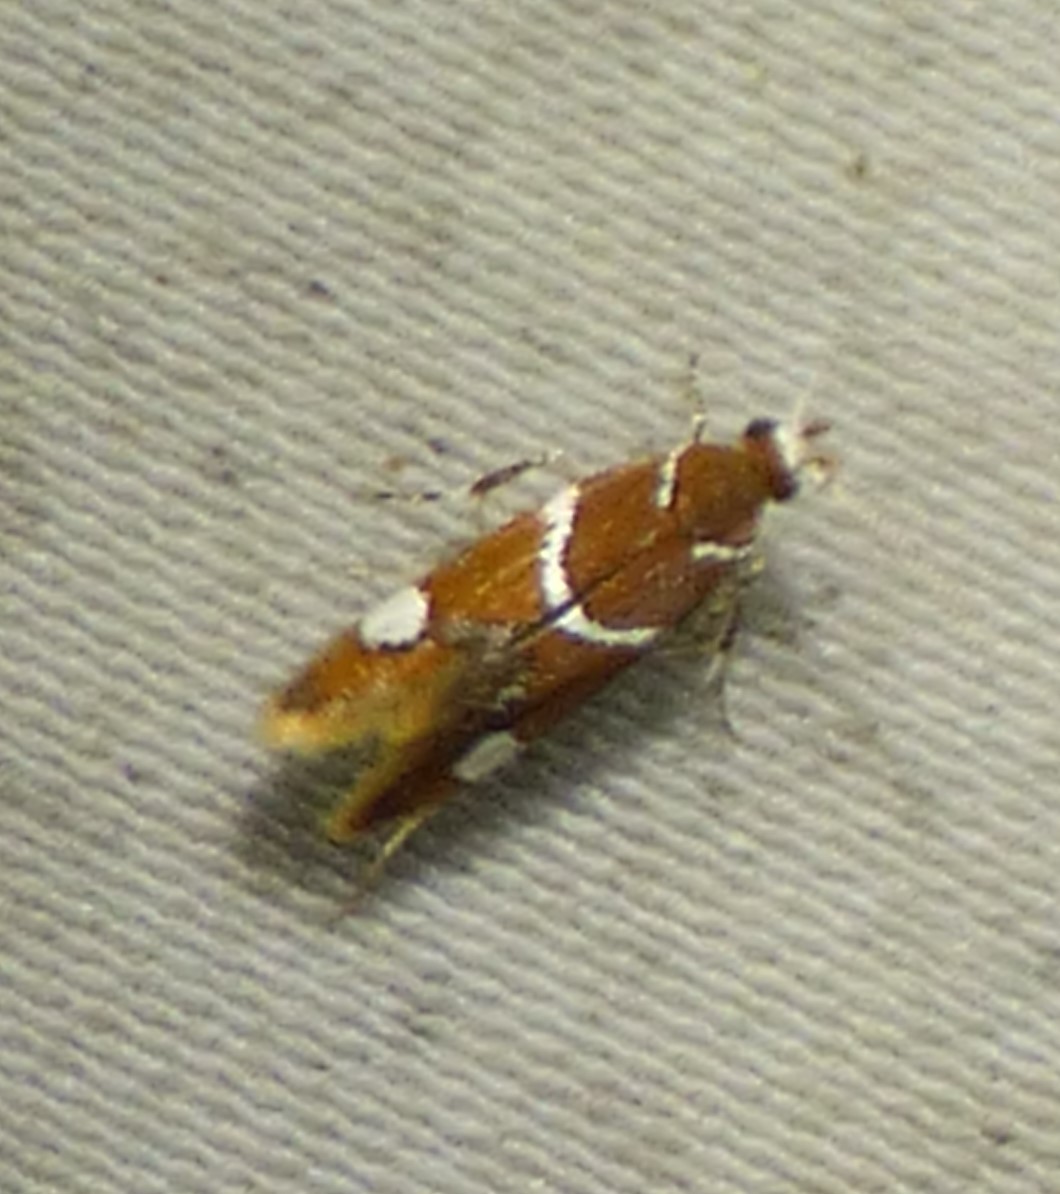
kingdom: Animalia
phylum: Arthropoda
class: Insecta
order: Lepidoptera
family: Oecophoridae
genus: Promalactis
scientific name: Promalactis suzukiella
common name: Moth
